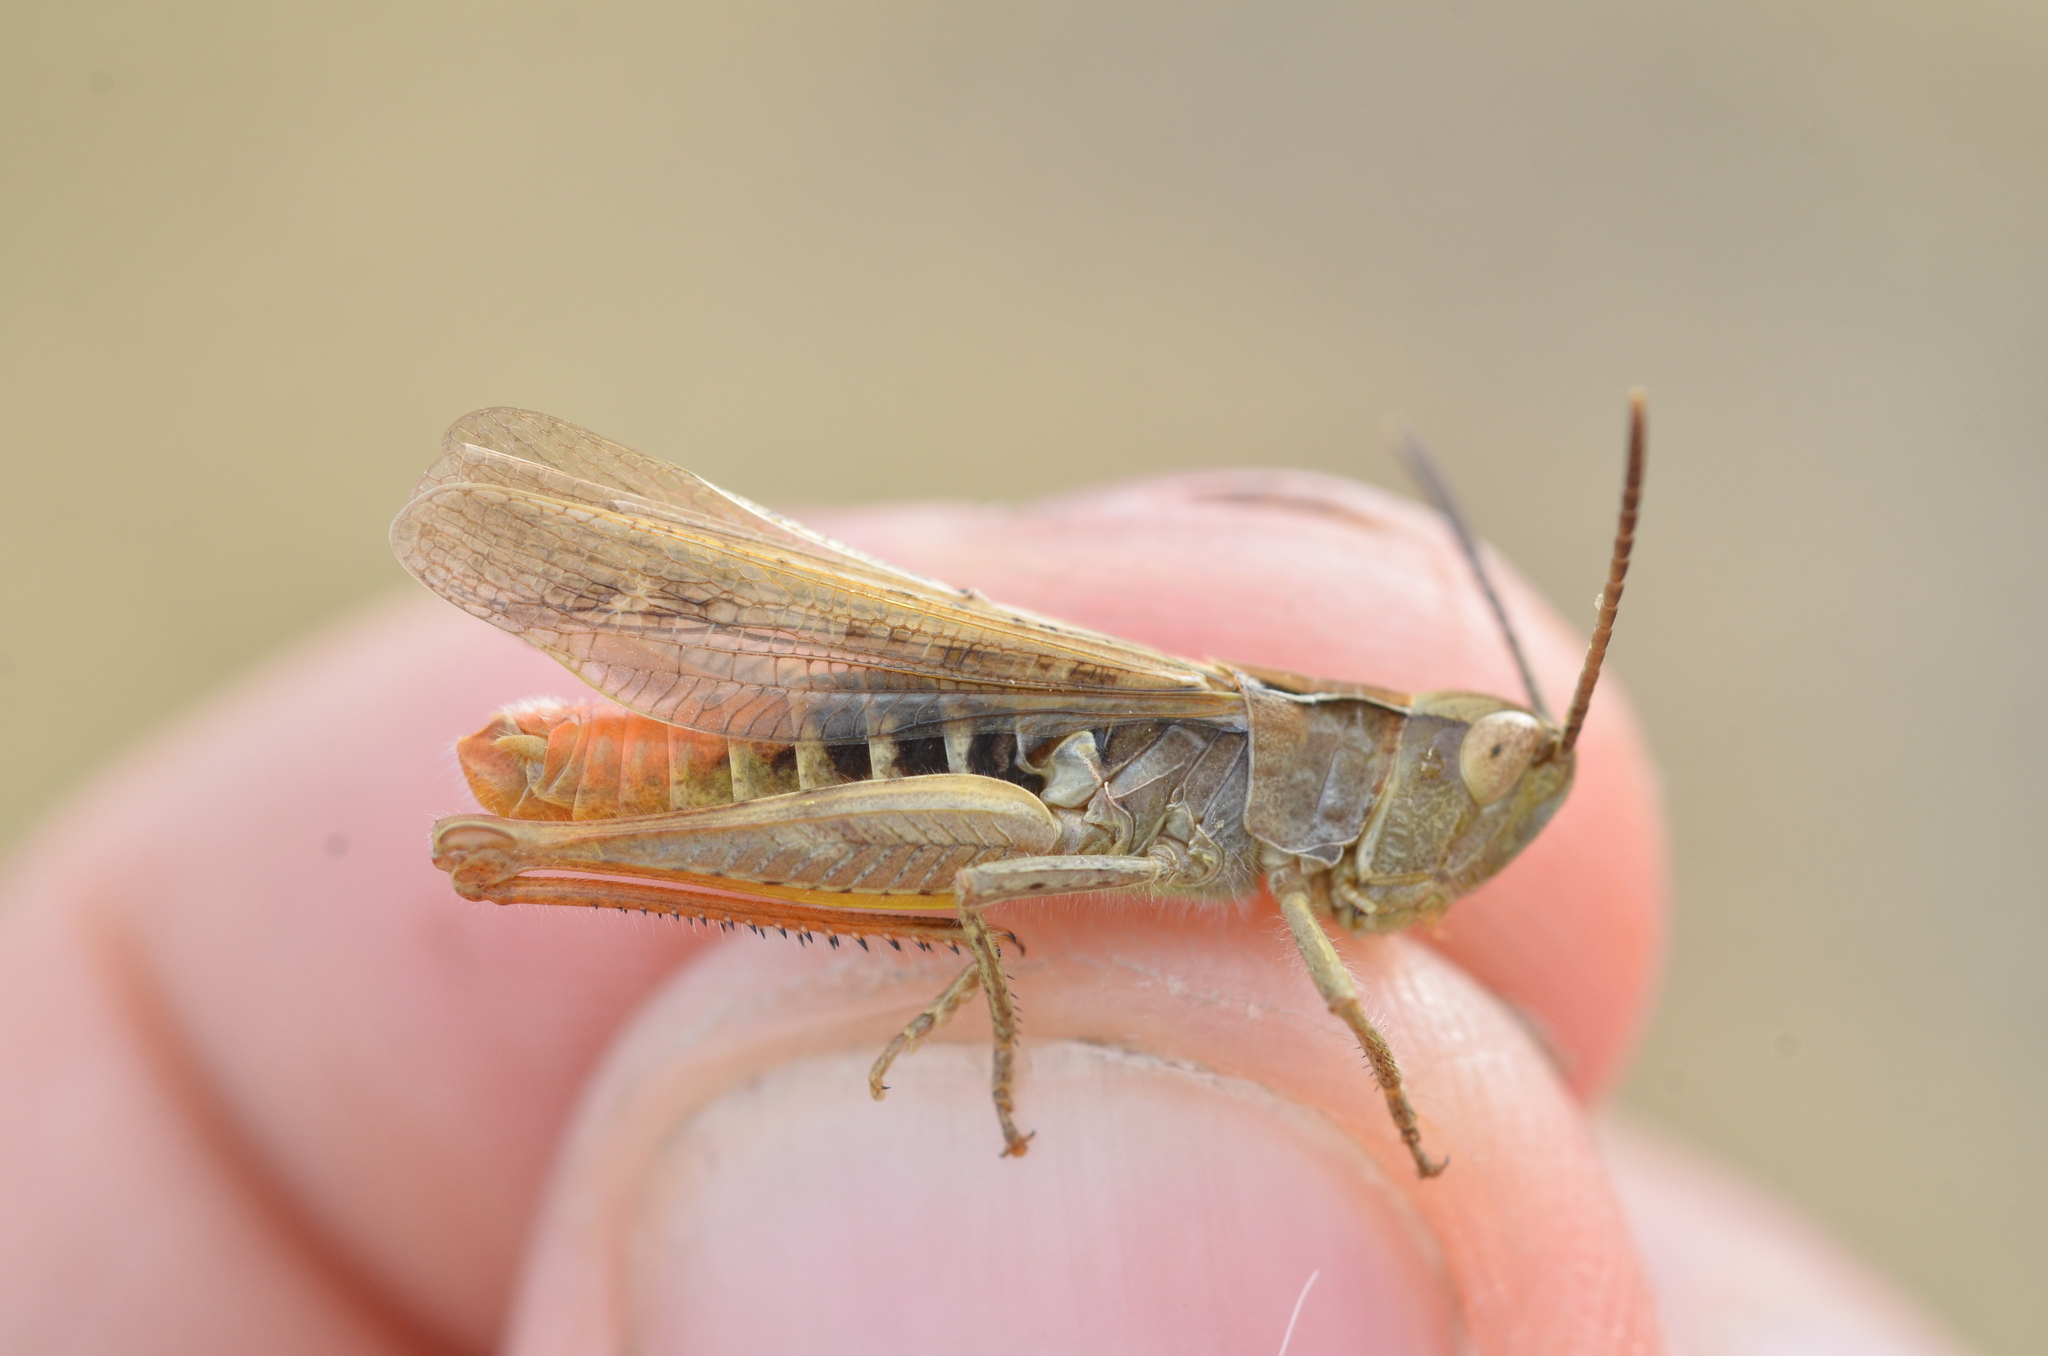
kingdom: Animalia
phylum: Arthropoda
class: Insecta
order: Orthoptera
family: Acrididae
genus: Chorthippus
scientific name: Chorthippus biguttulus
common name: Bow-winged grasshopper
